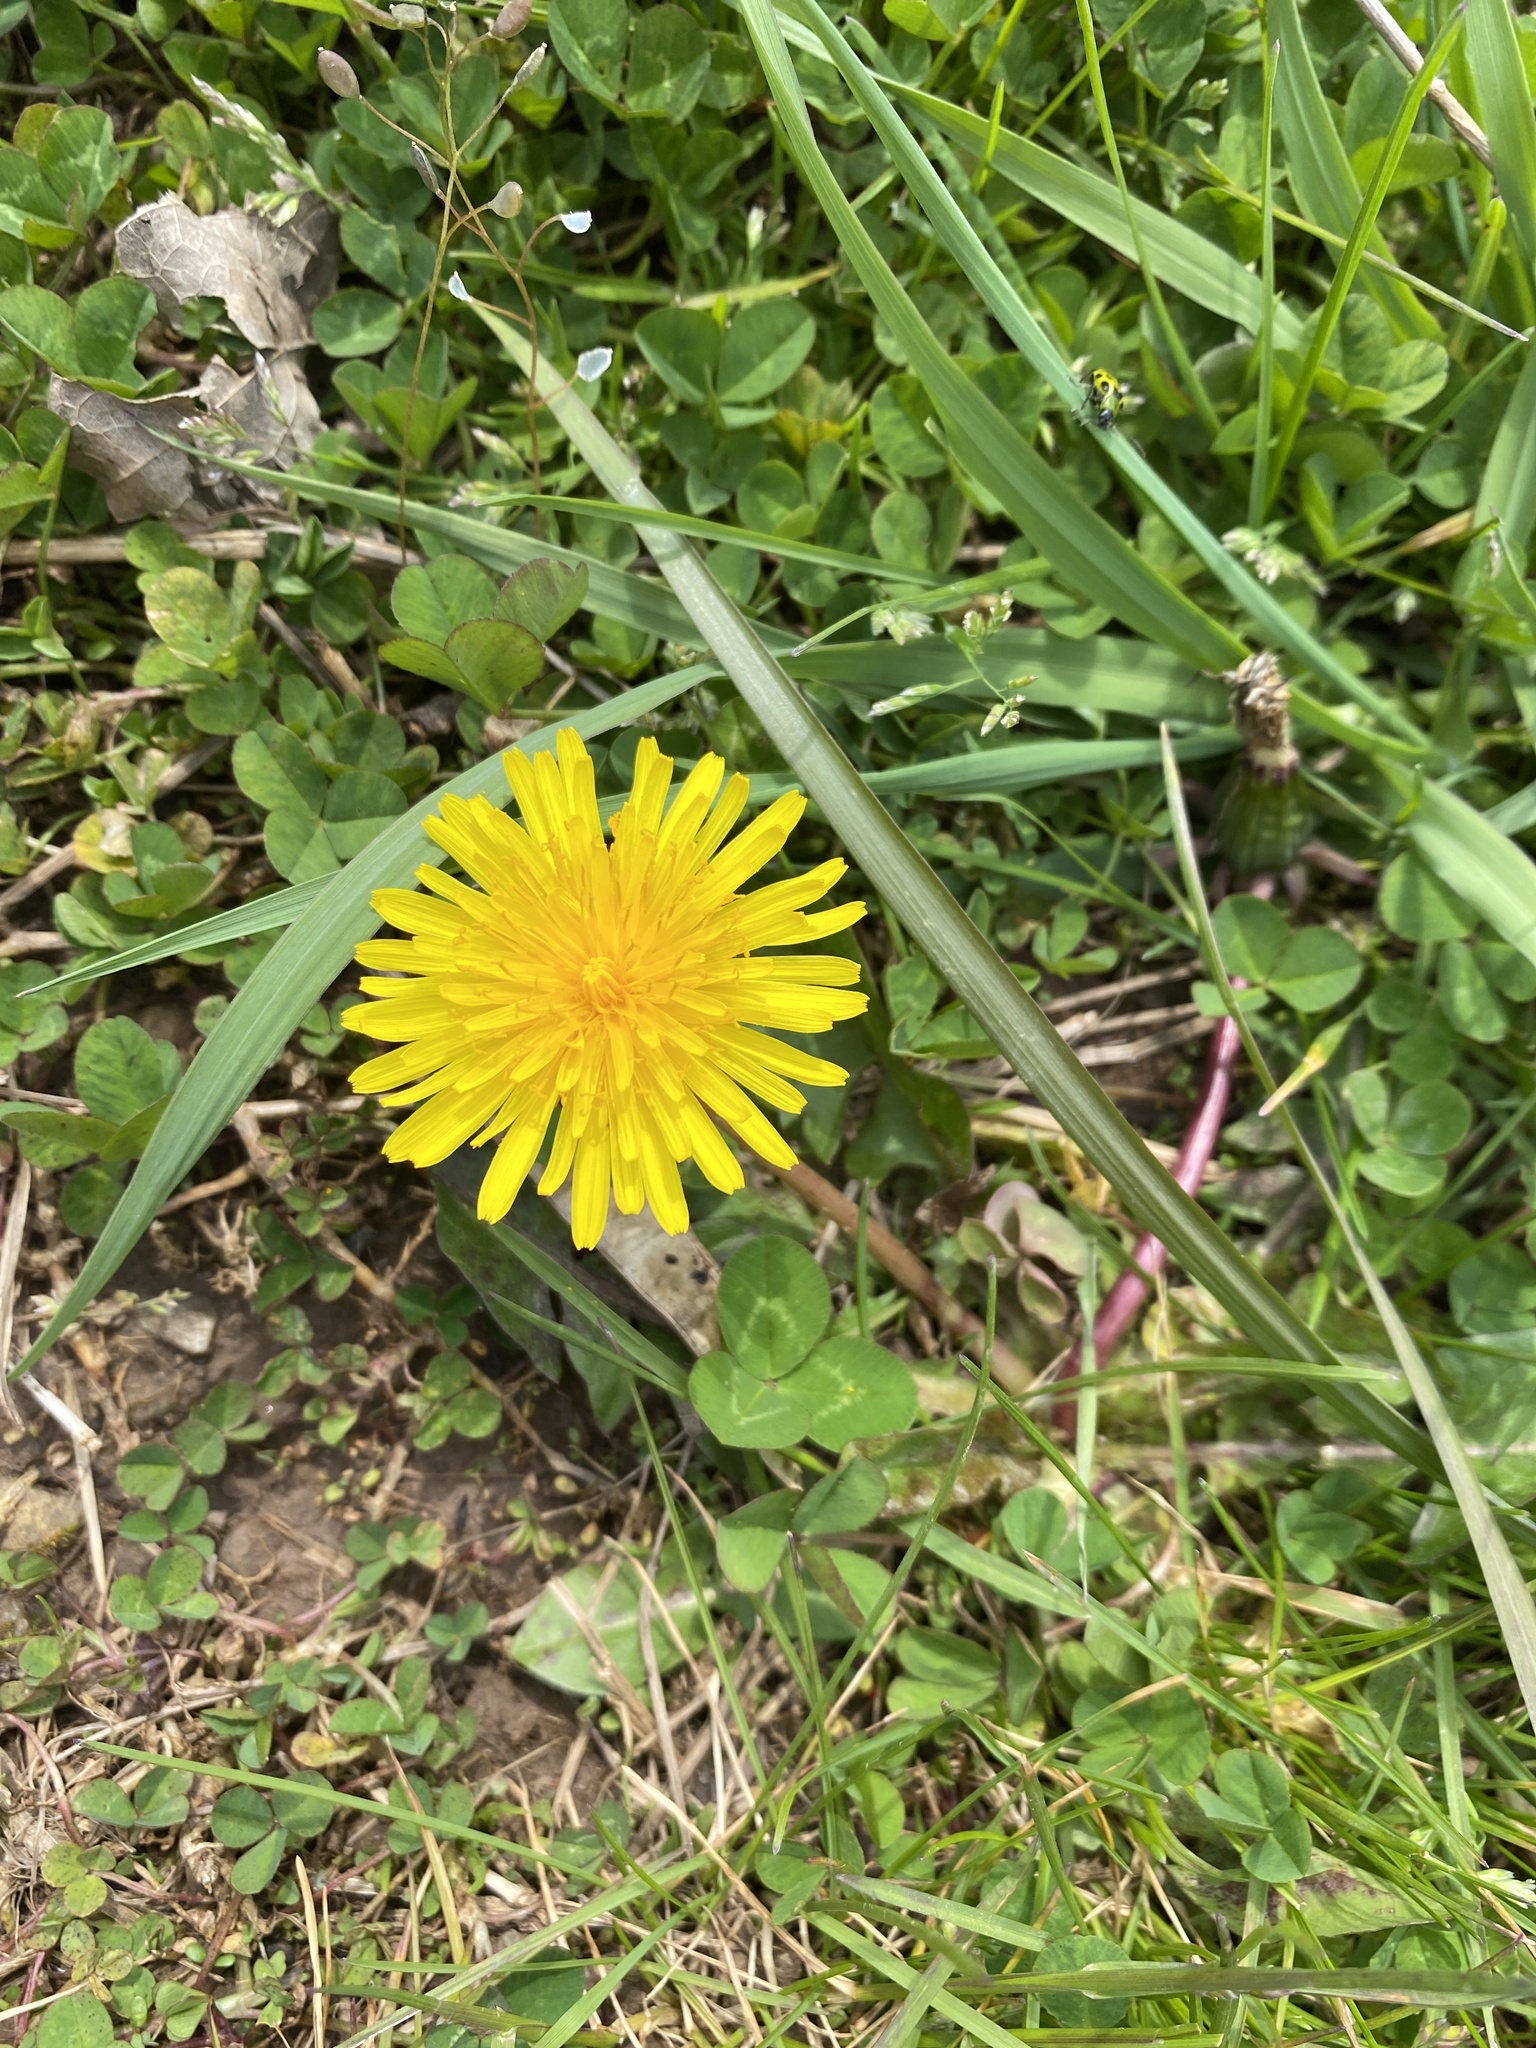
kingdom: Plantae
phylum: Tracheophyta
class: Magnoliopsida
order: Asterales
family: Asteraceae
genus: Taraxacum
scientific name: Taraxacum officinale
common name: Common dandelion
